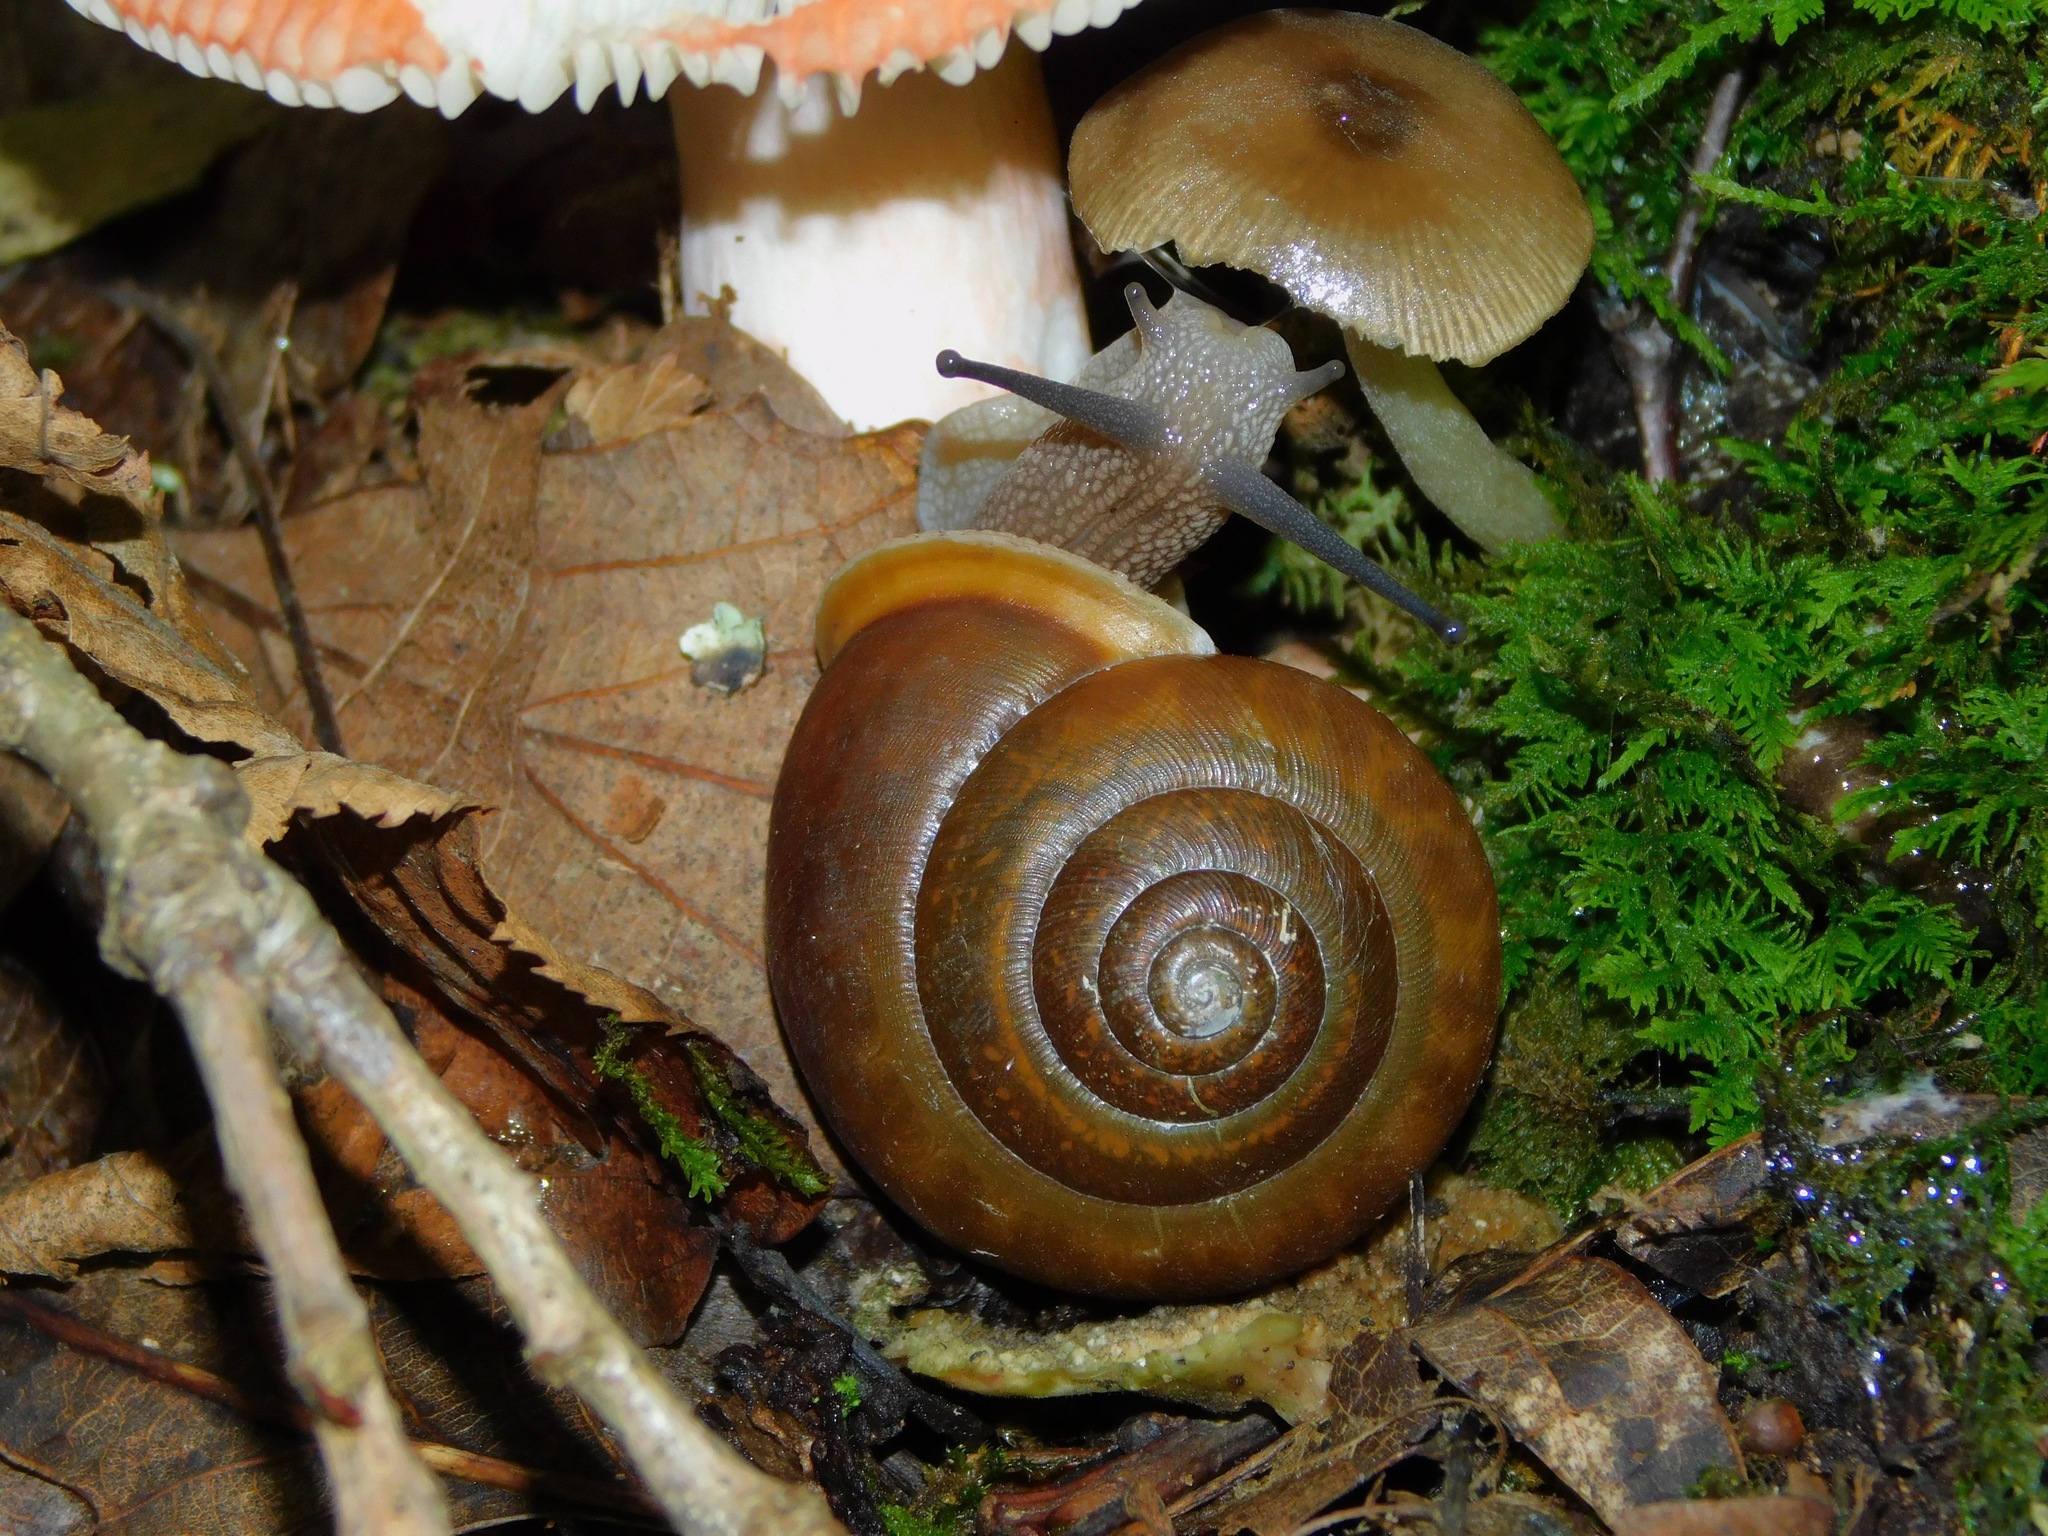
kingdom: Animalia
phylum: Mollusca
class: Gastropoda
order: Stylommatophora
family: Polygyridae
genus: Mesodon
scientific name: Mesodon normalis
